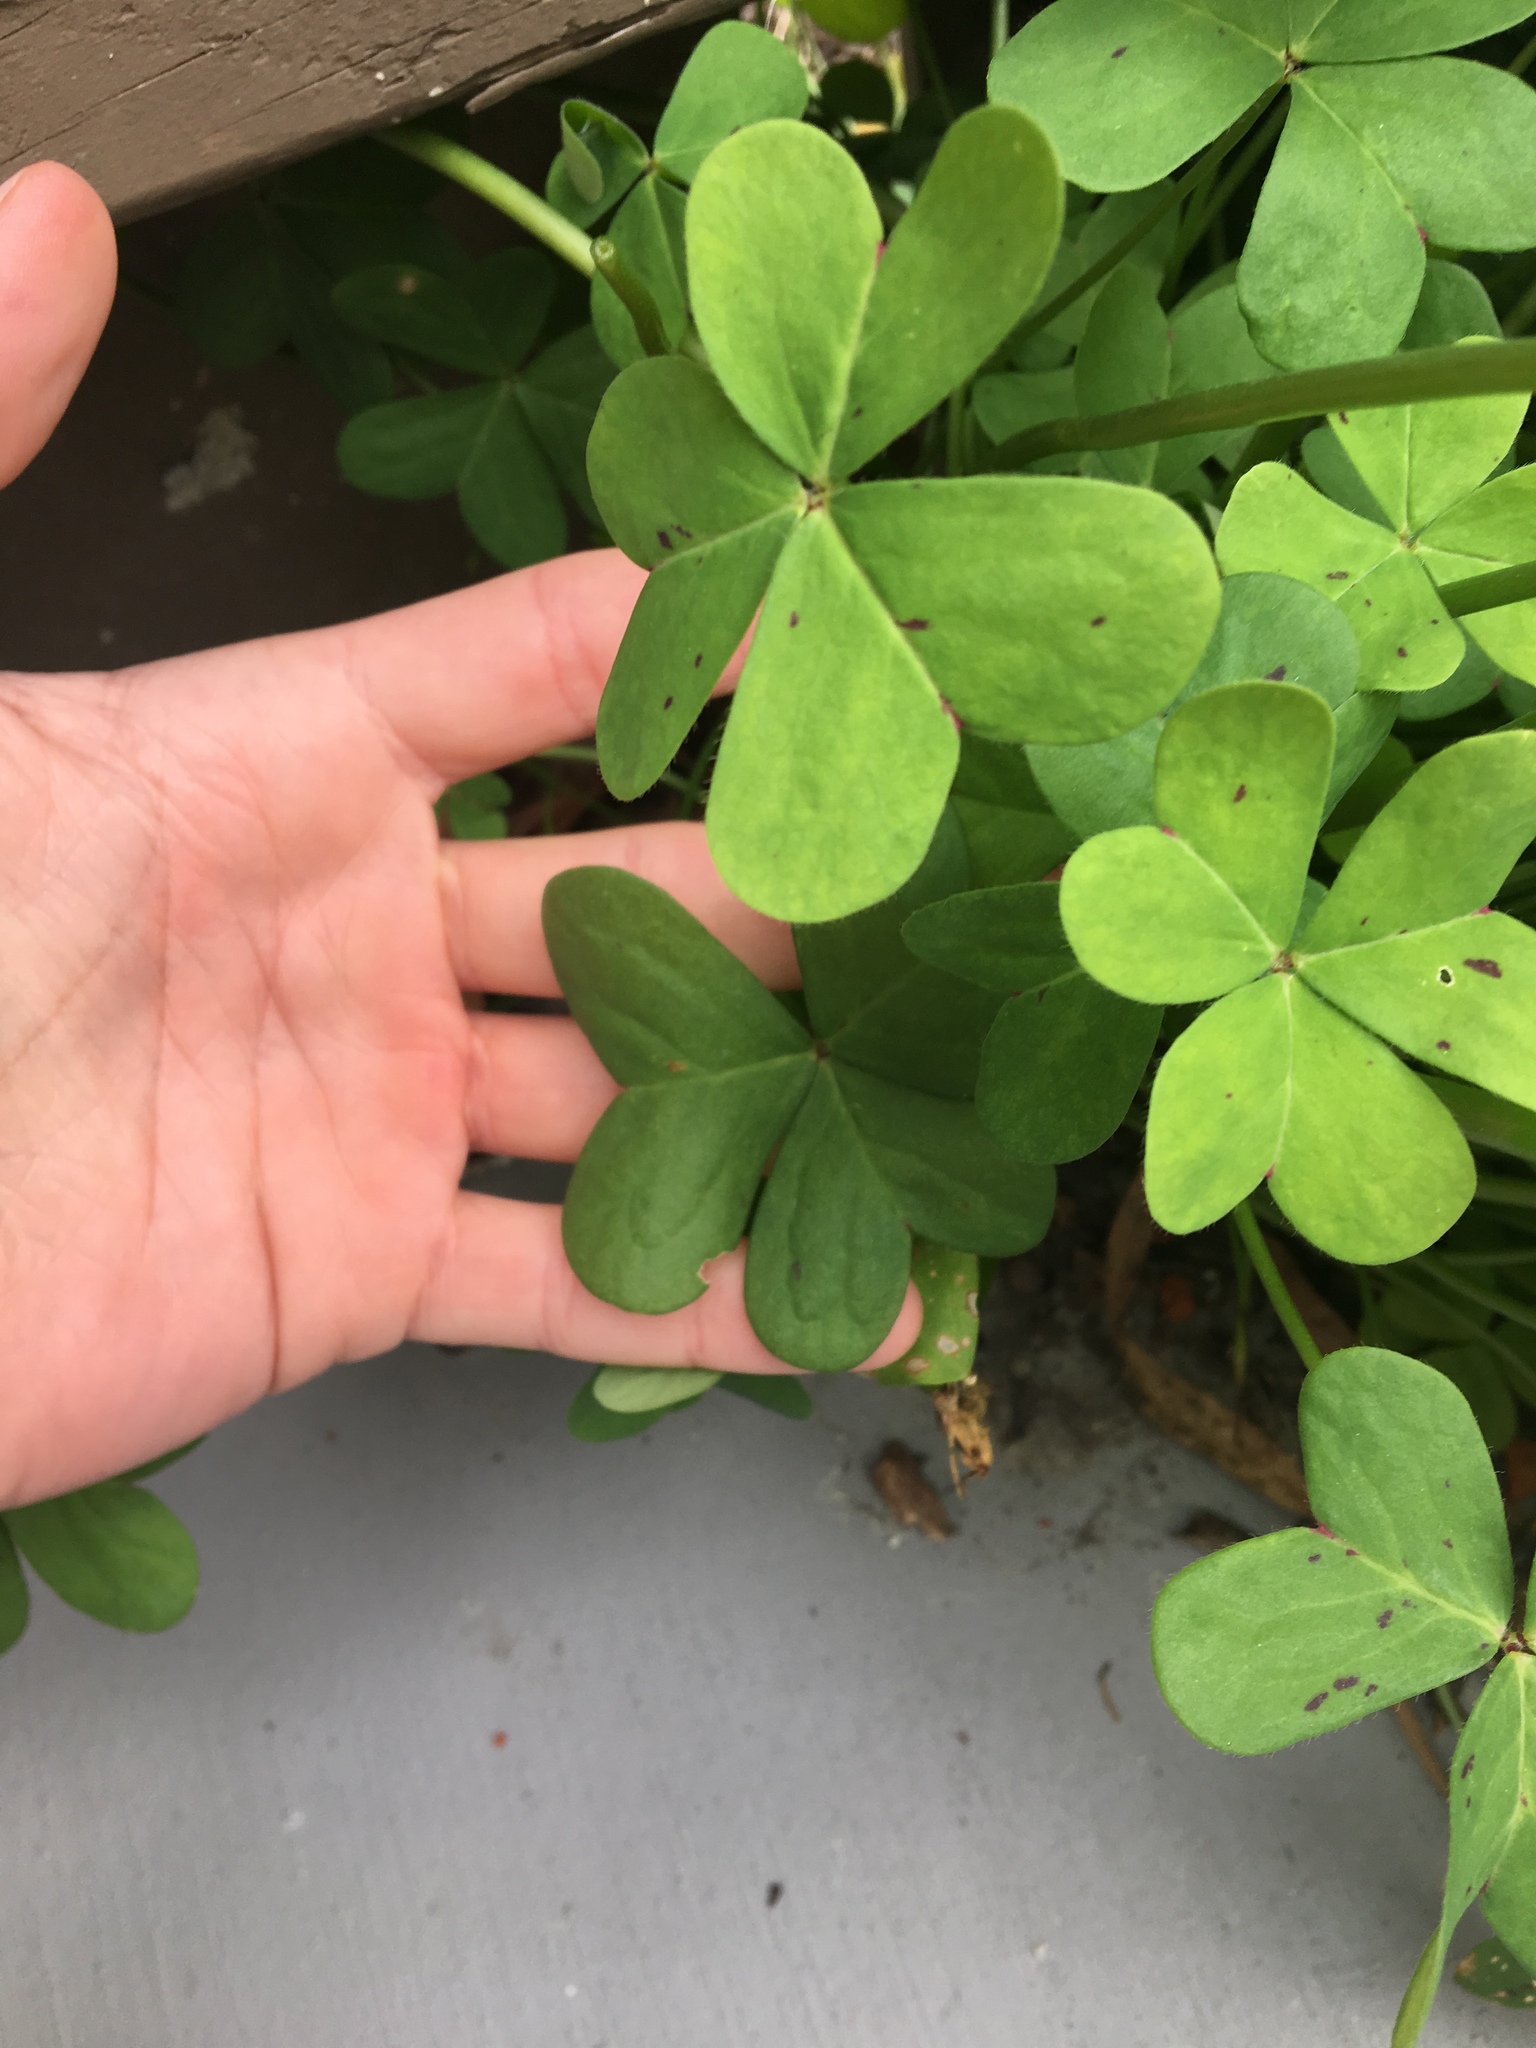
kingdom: Plantae
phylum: Tracheophyta
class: Magnoliopsida
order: Oxalidales
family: Oxalidaceae
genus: Oxalis
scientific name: Oxalis pes-caprae
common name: Bermuda-buttercup
